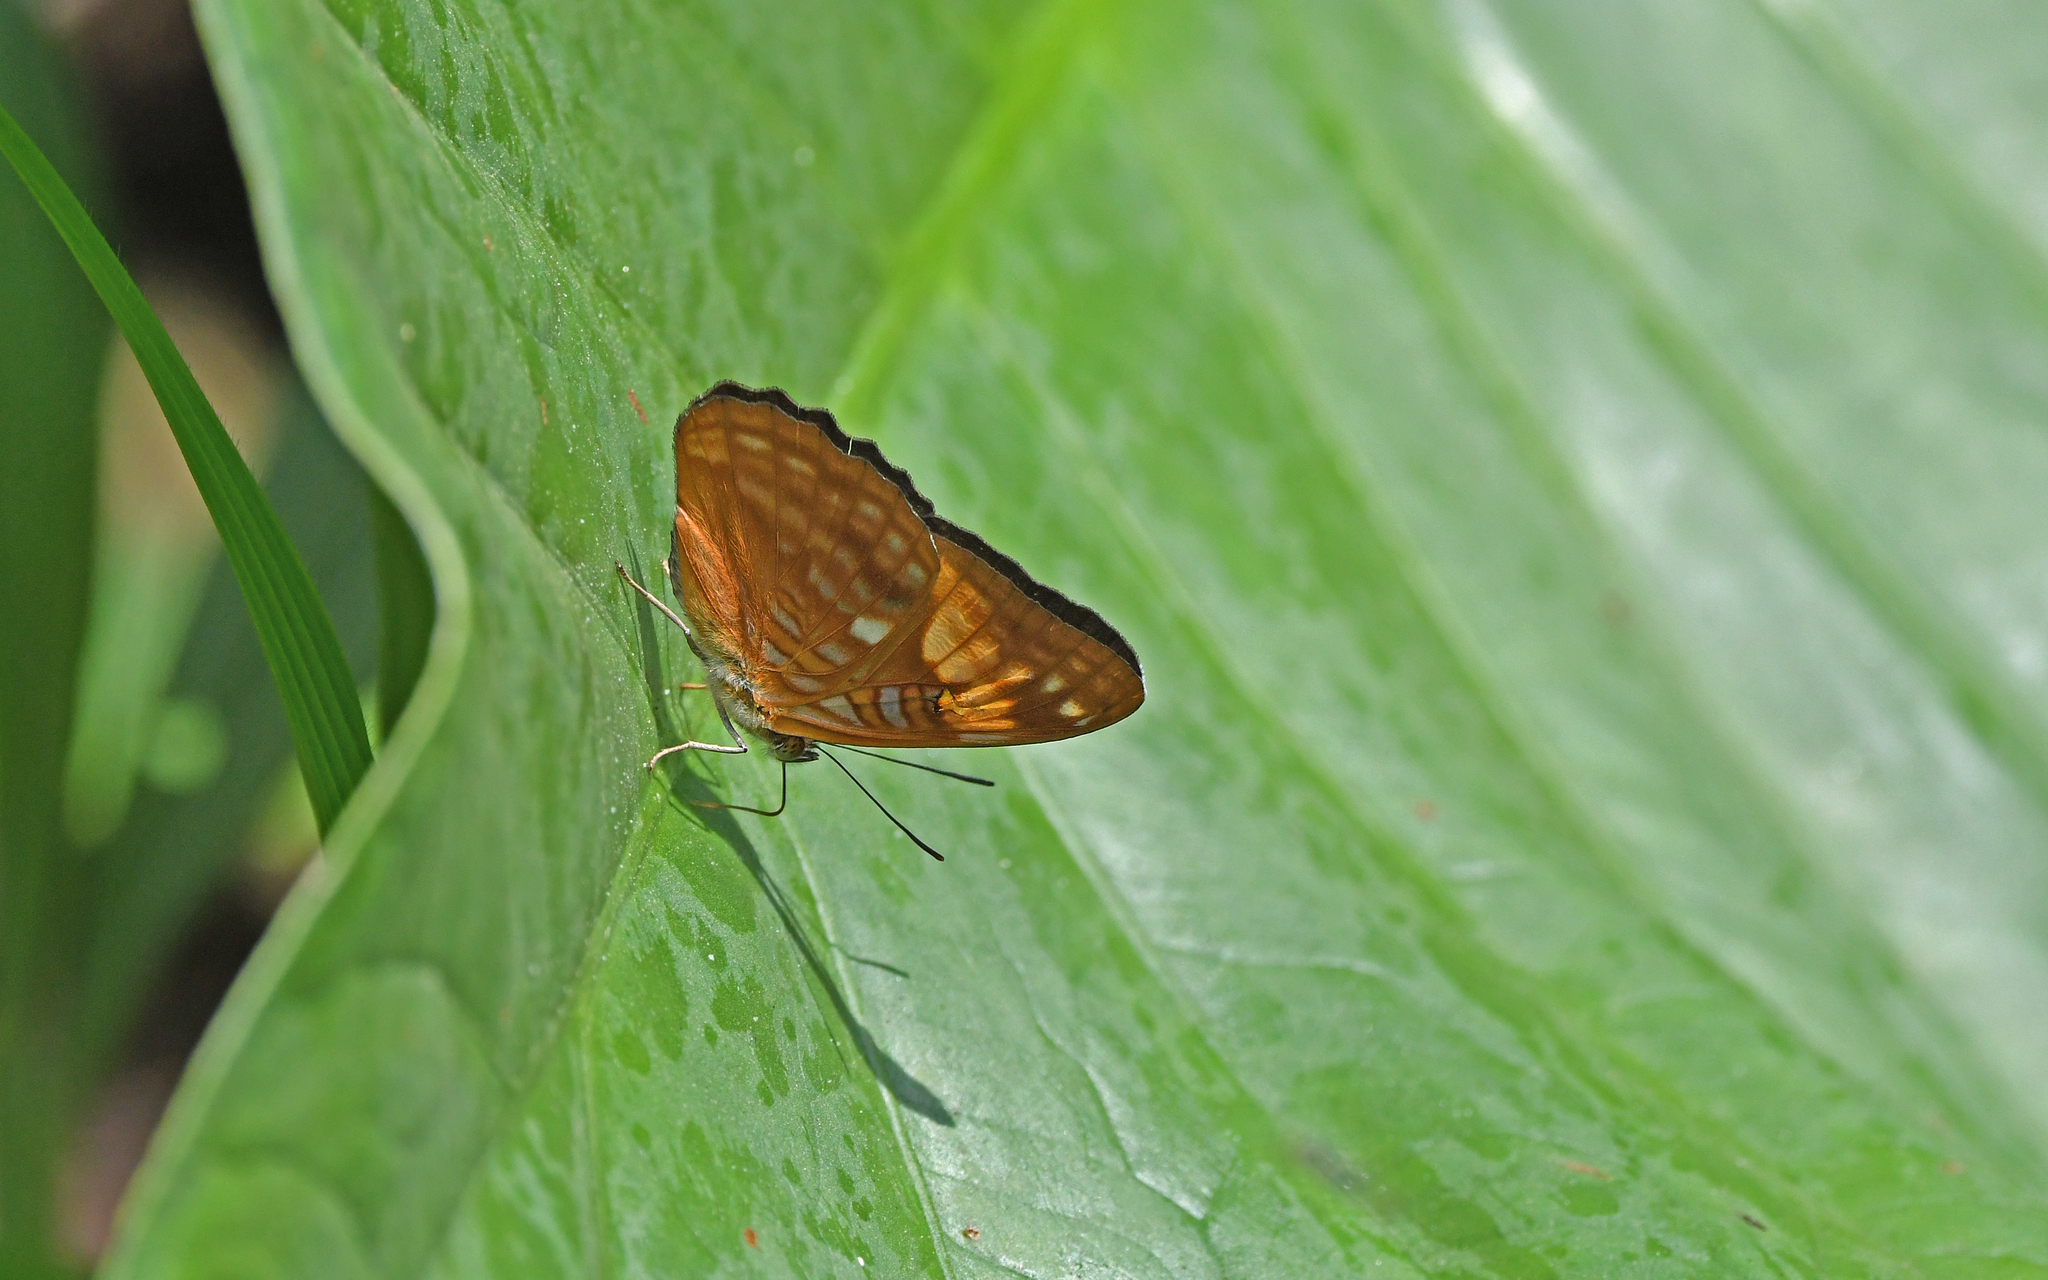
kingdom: Animalia
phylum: Arthropoda
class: Insecta
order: Lepidoptera
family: Nymphalidae
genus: Limenitis
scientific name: Limenitis irmina
